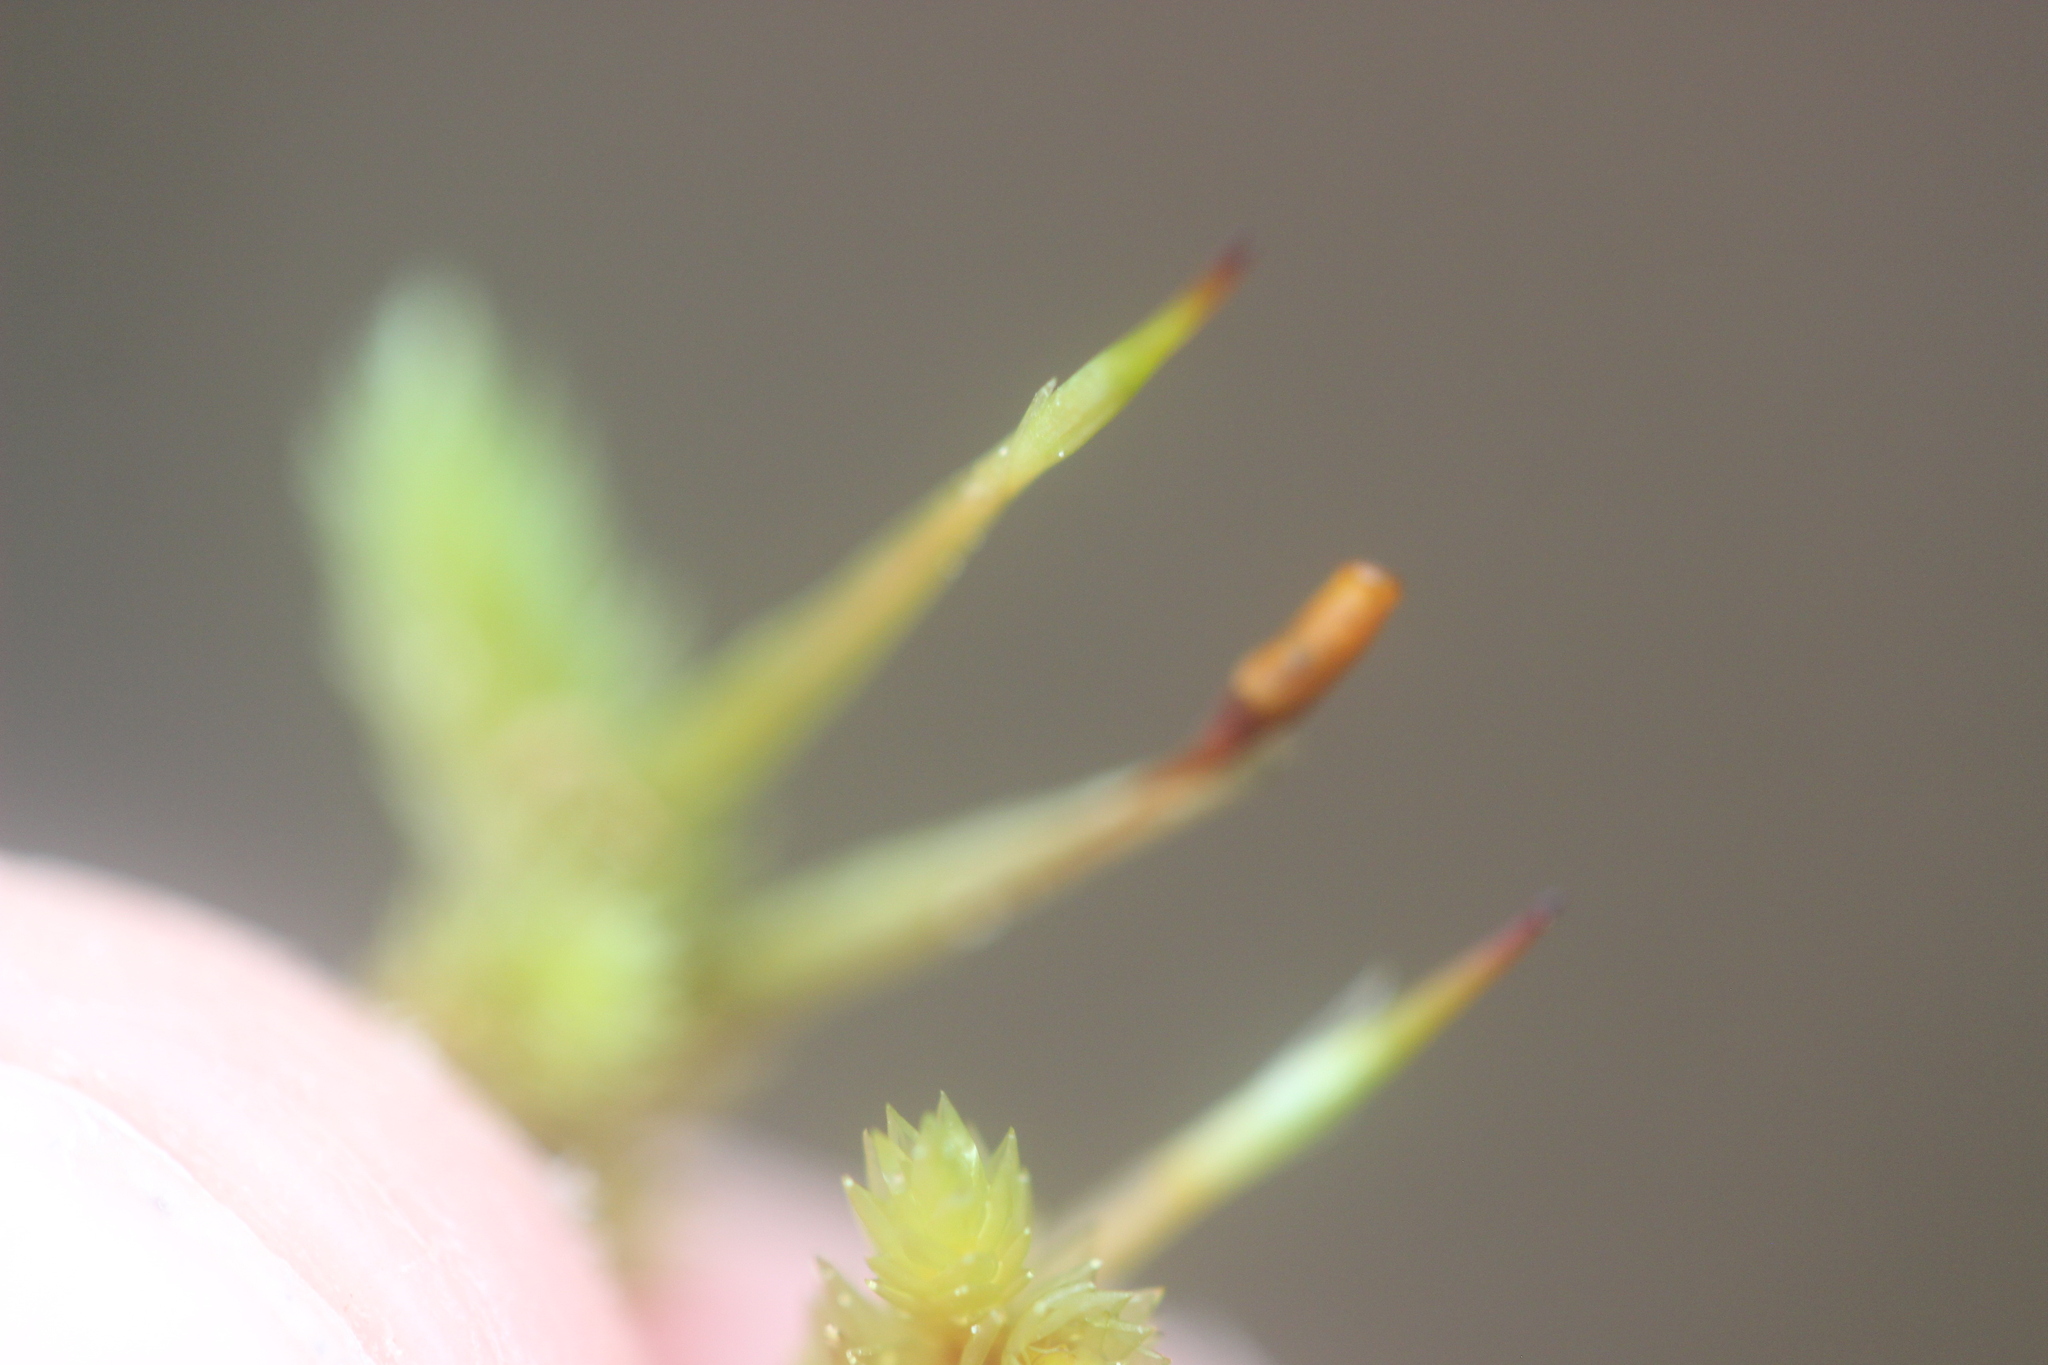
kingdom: Plantae
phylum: Bryophyta
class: Bryopsida
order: Dicranales
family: Dicranaceae
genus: Dicnemon
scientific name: Dicnemon calycinum
